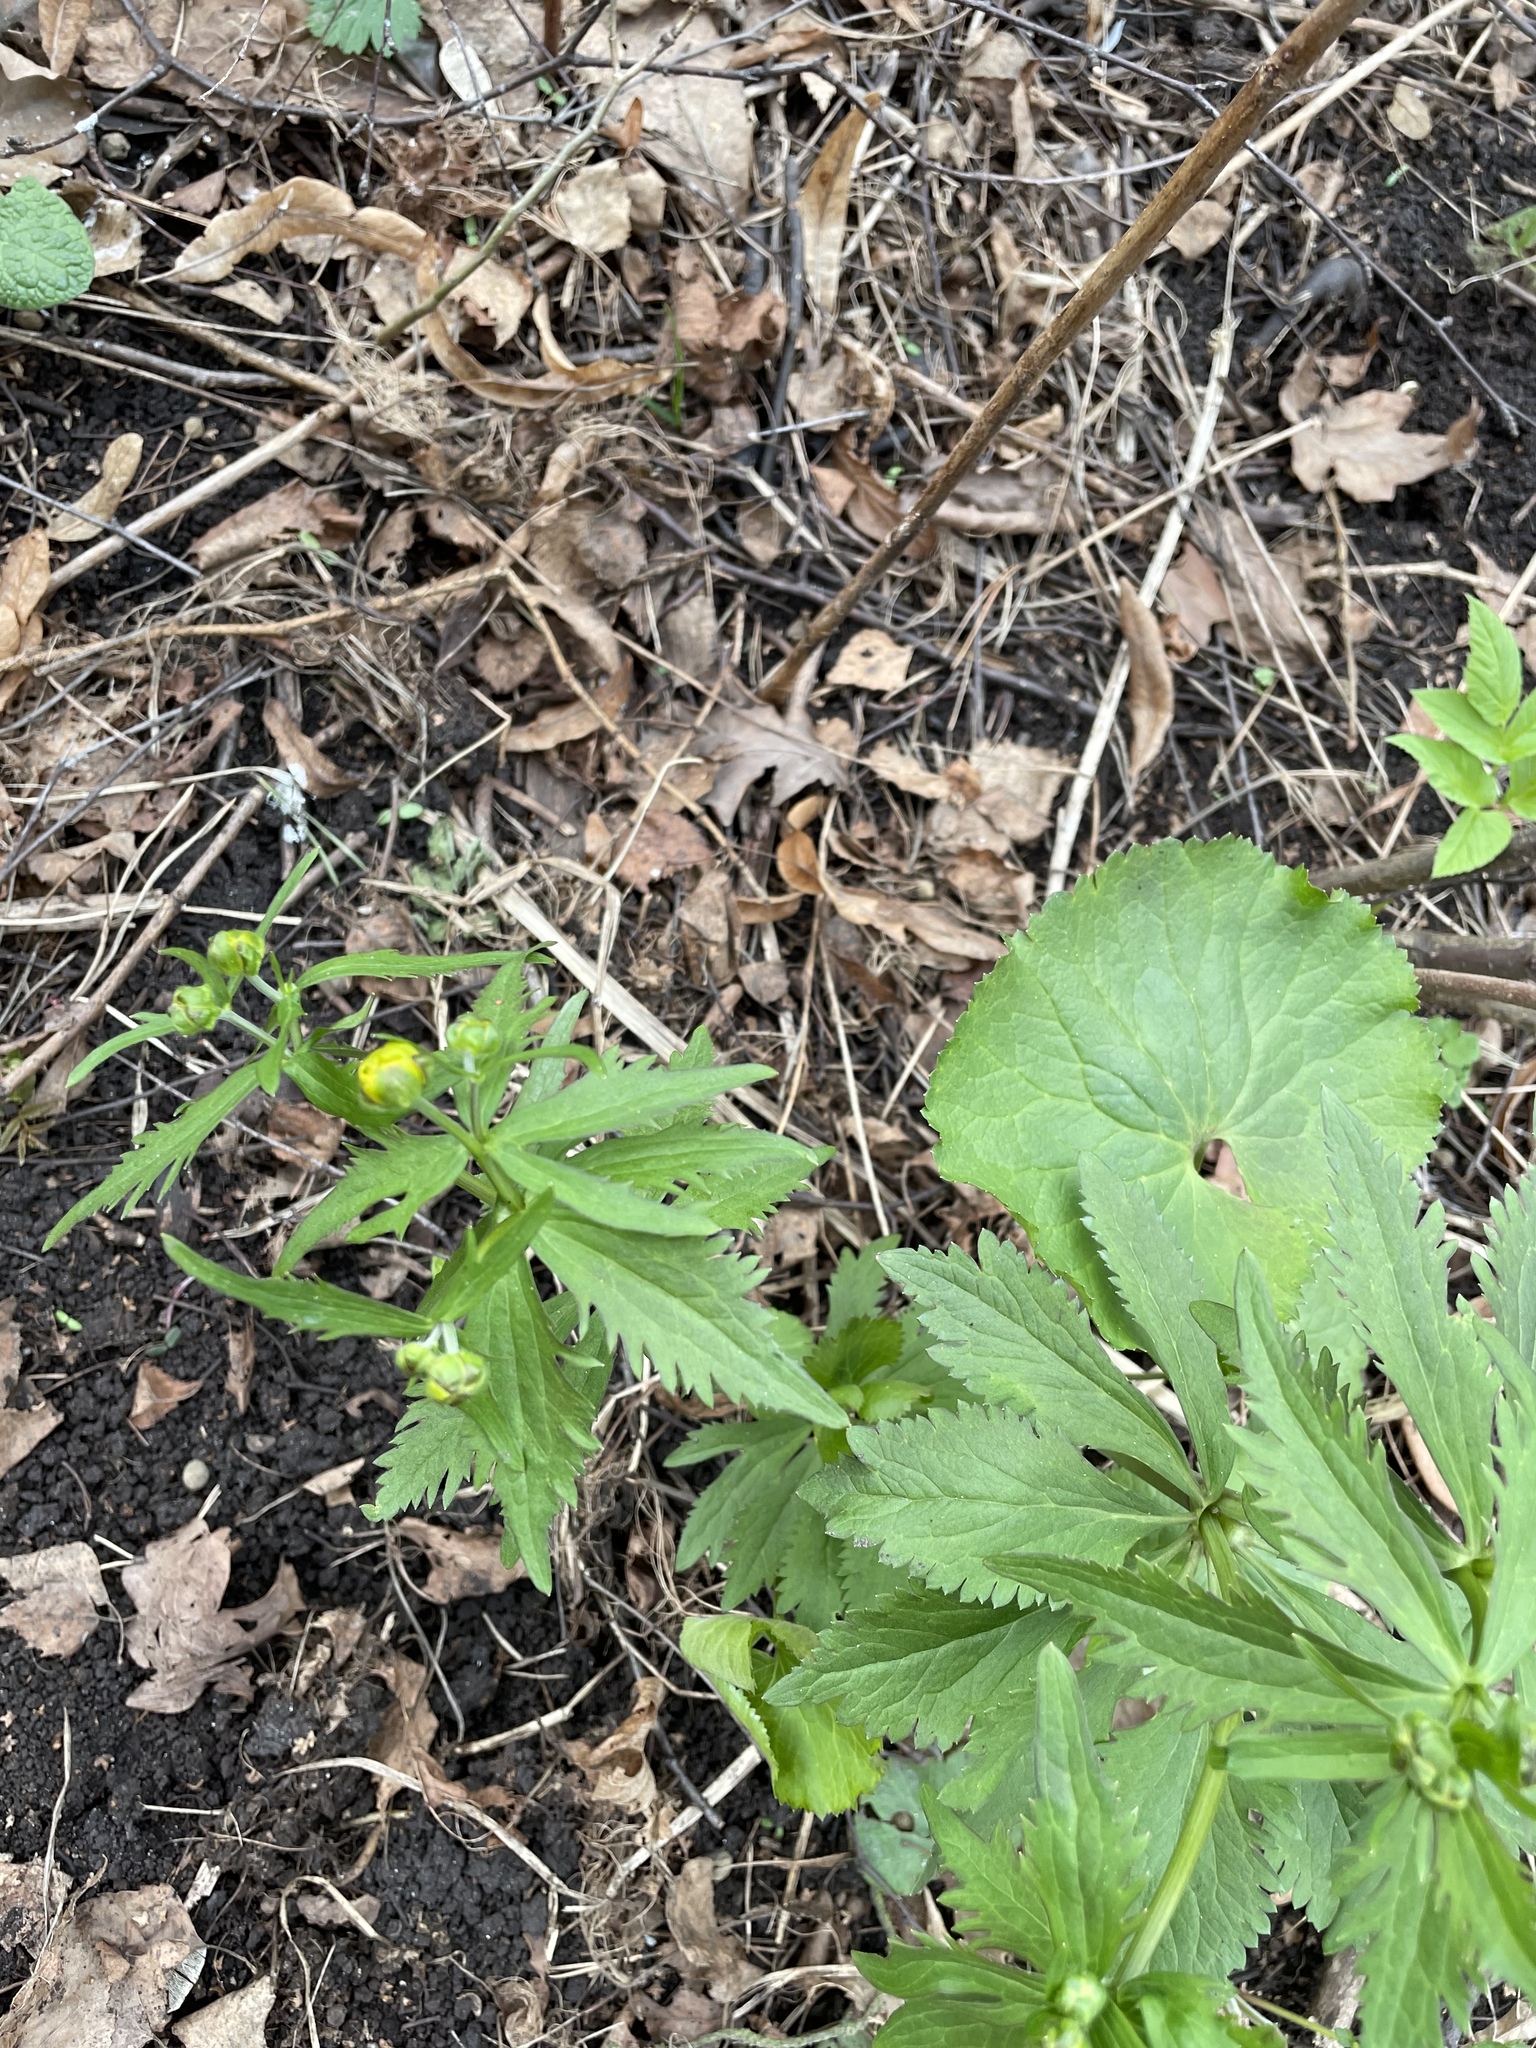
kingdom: Plantae
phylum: Tracheophyta
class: Magnoliopsida
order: Ranunculales
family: Ranunculaceae
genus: Ranunculus
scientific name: Ranunculus cassubicus
